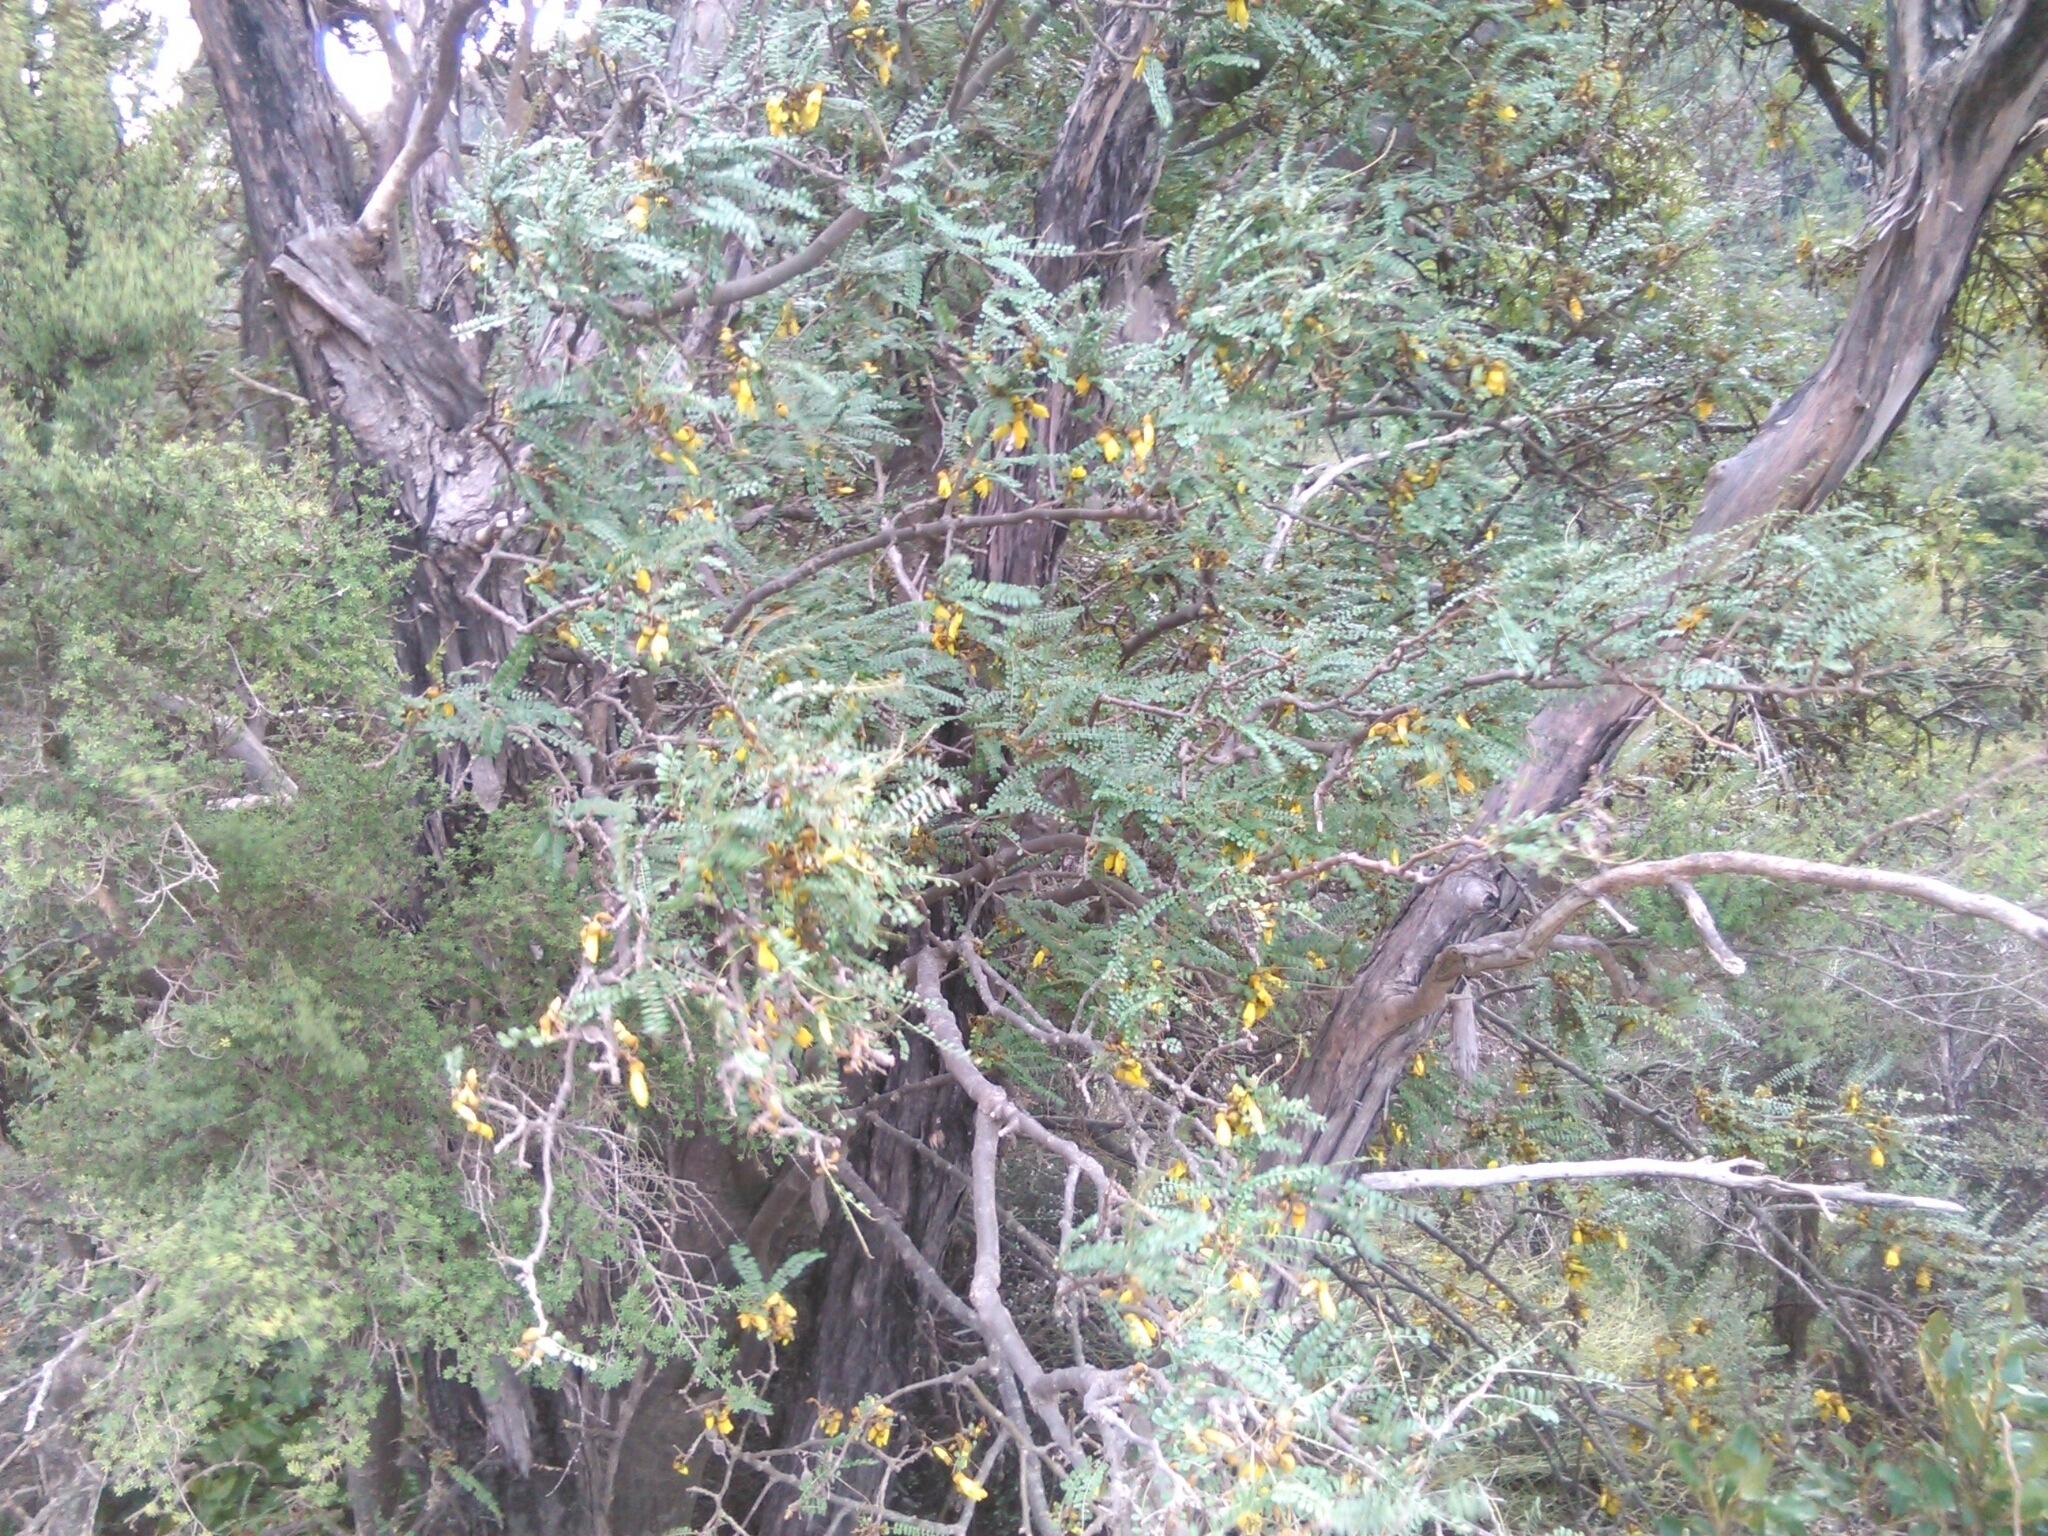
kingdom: Plantae
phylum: Tracheophyta
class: Magnoliopsida
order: Fabales
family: Fabaceae
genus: Sophora
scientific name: Sophora microphylla
